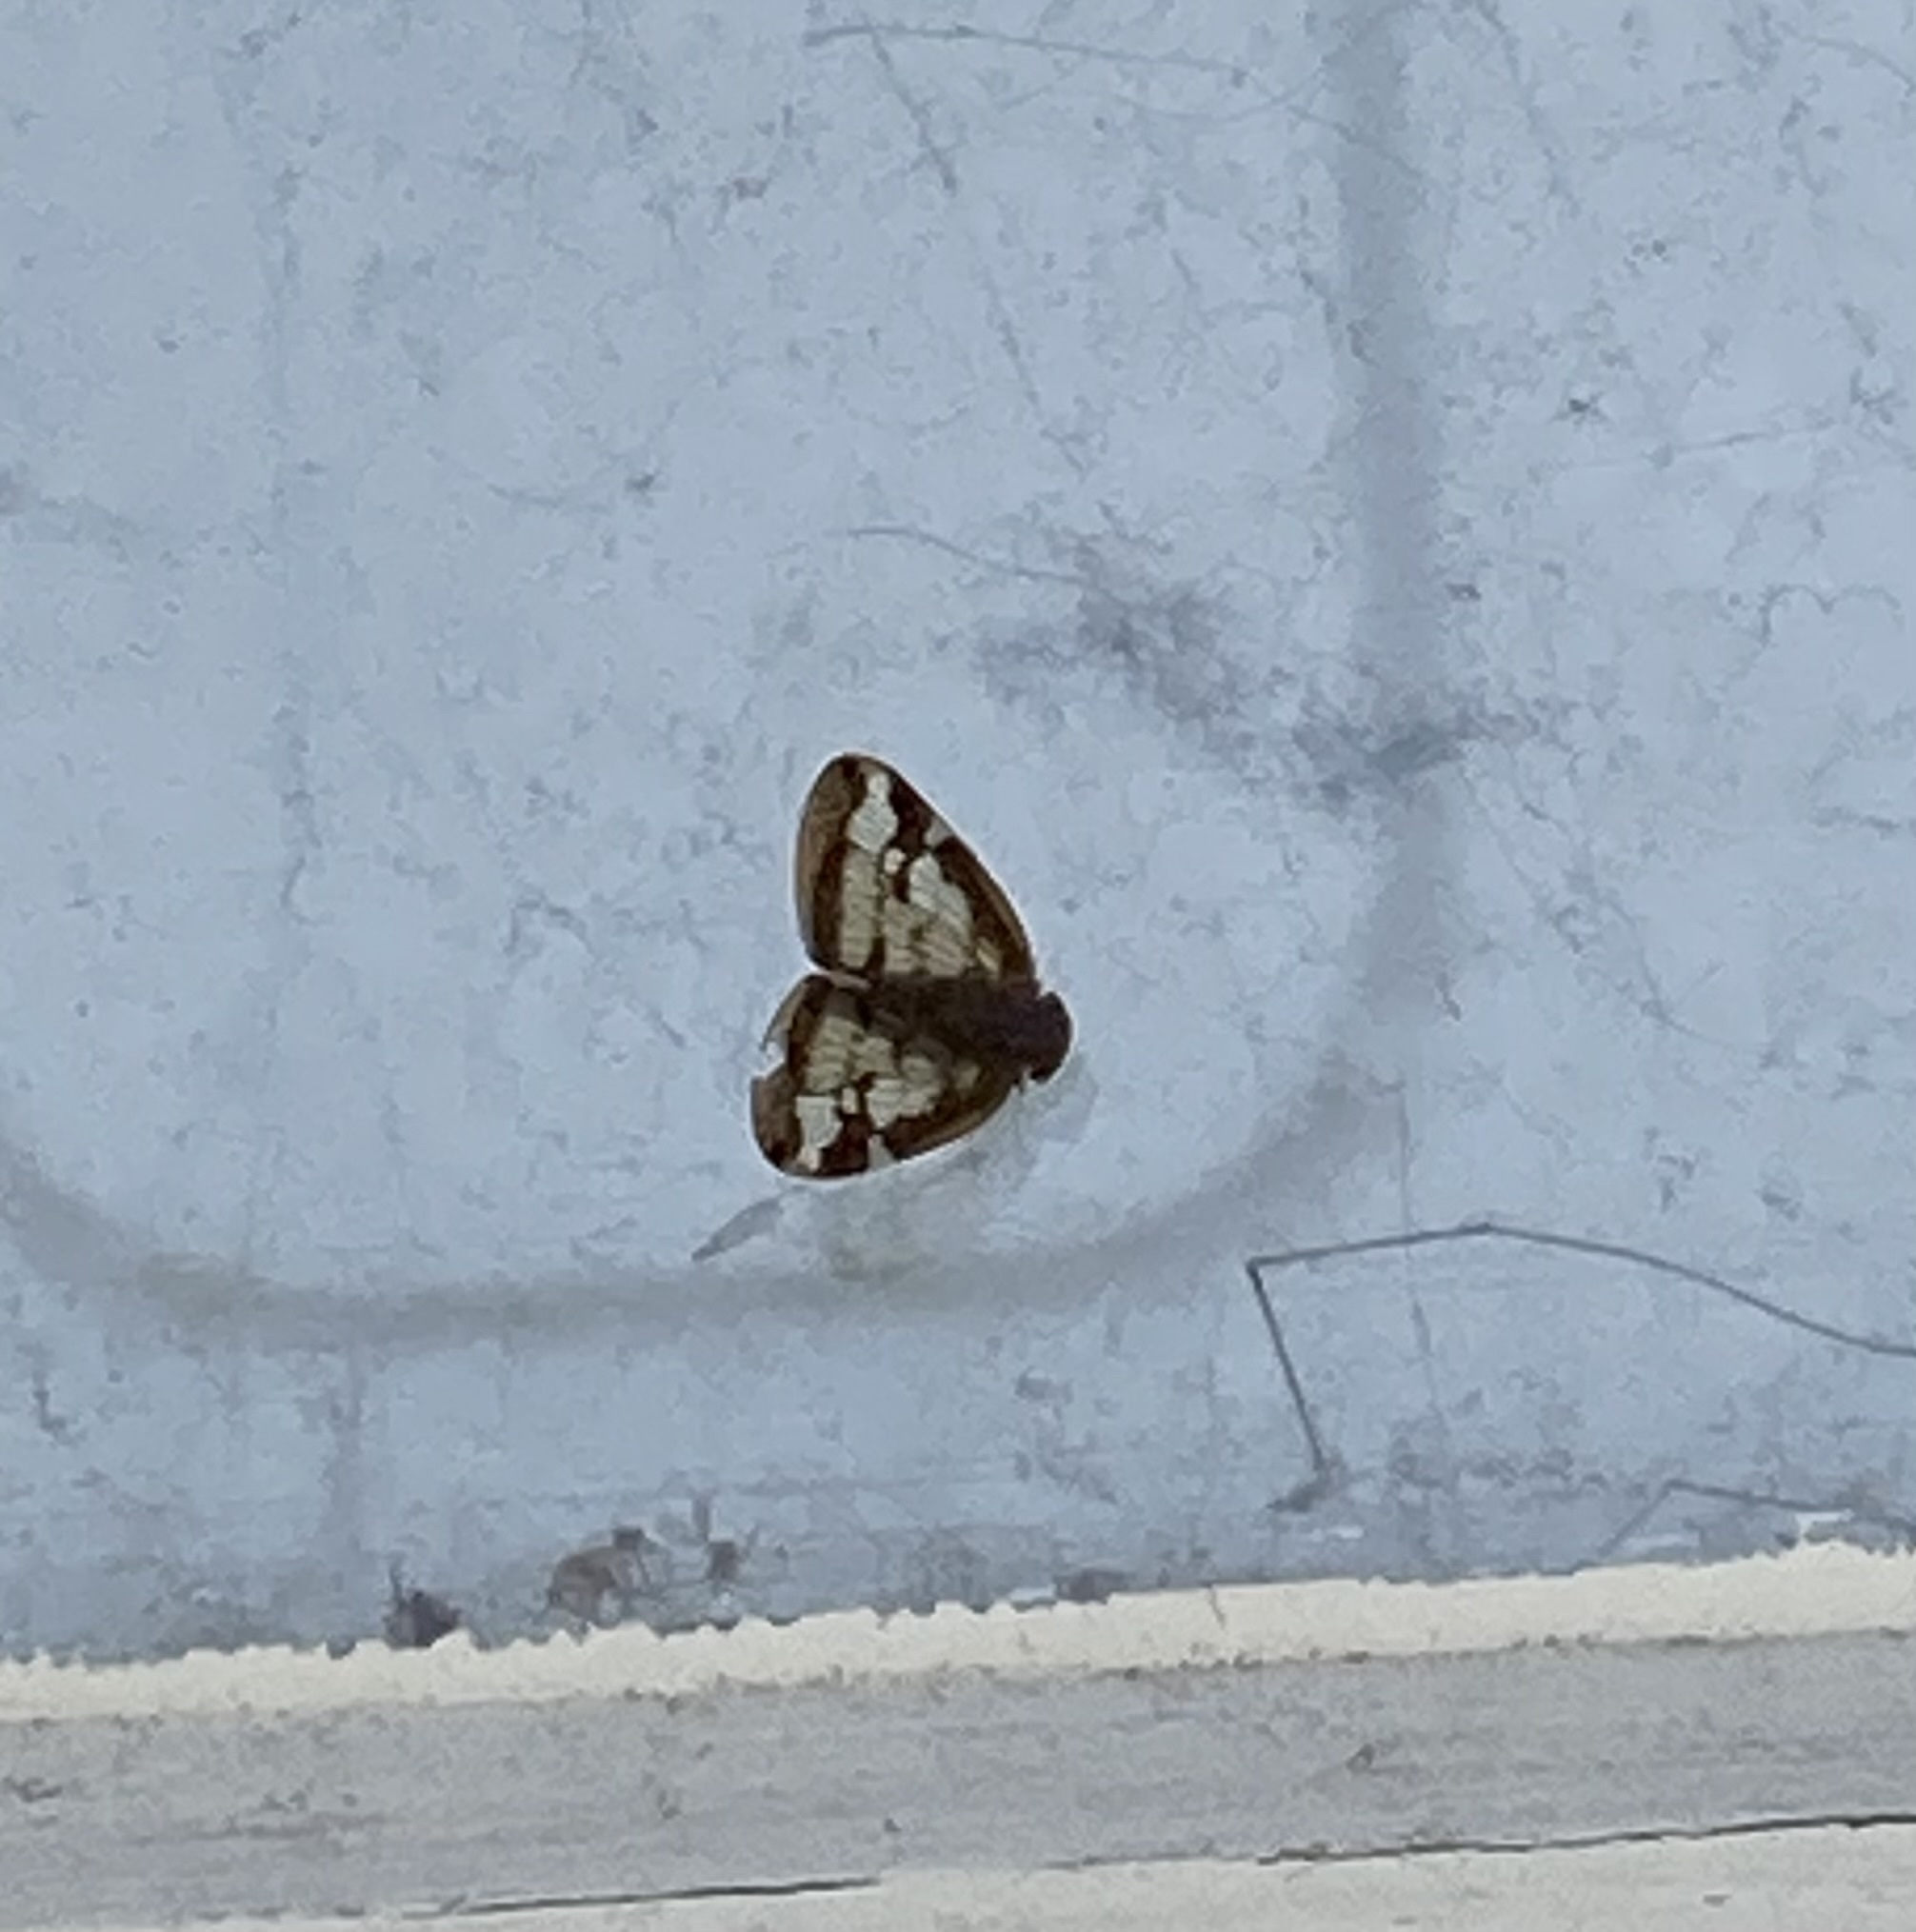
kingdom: Animalia
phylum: Arthropoda
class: Insecta
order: Hemiptera
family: Ricaniidae
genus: Scolypopa
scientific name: Scolypopa australis
